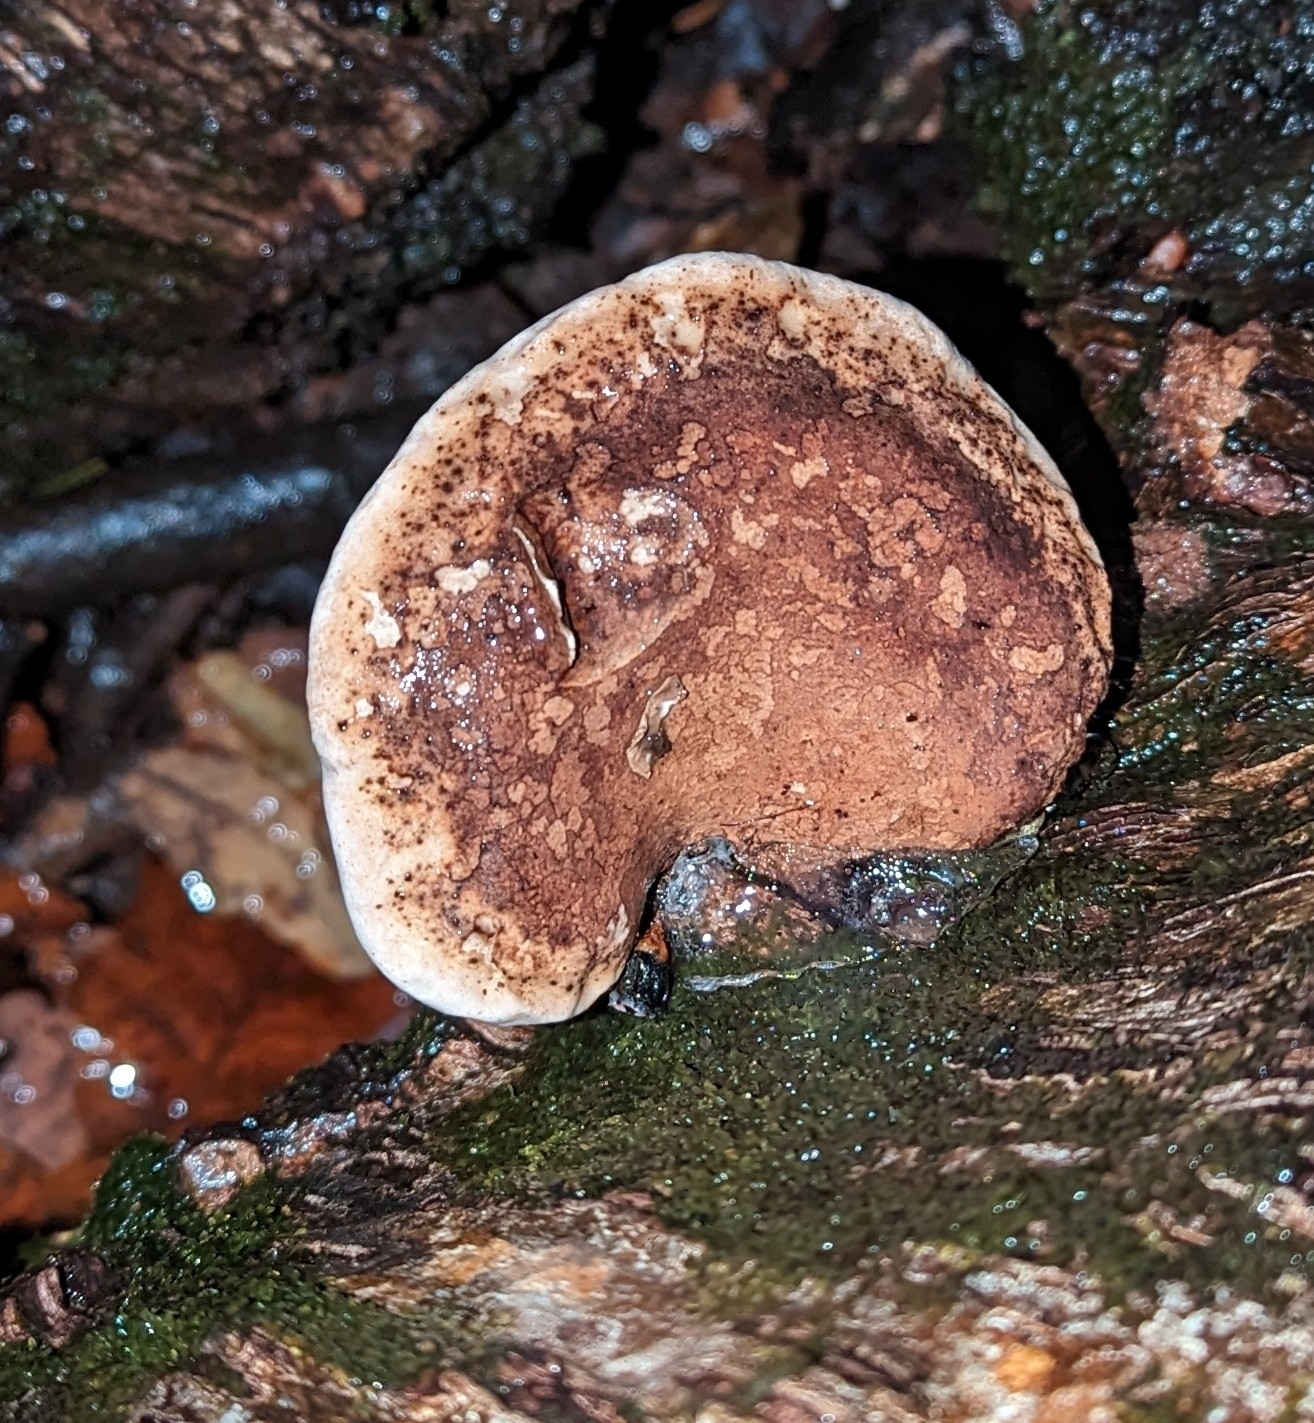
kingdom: Fungi
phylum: Basidiomycota
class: Agaricomycetes
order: Polyporales
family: Fomitopsidaceae
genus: Fomitopsis
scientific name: Fomitopsis betulina
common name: Birch polypore
